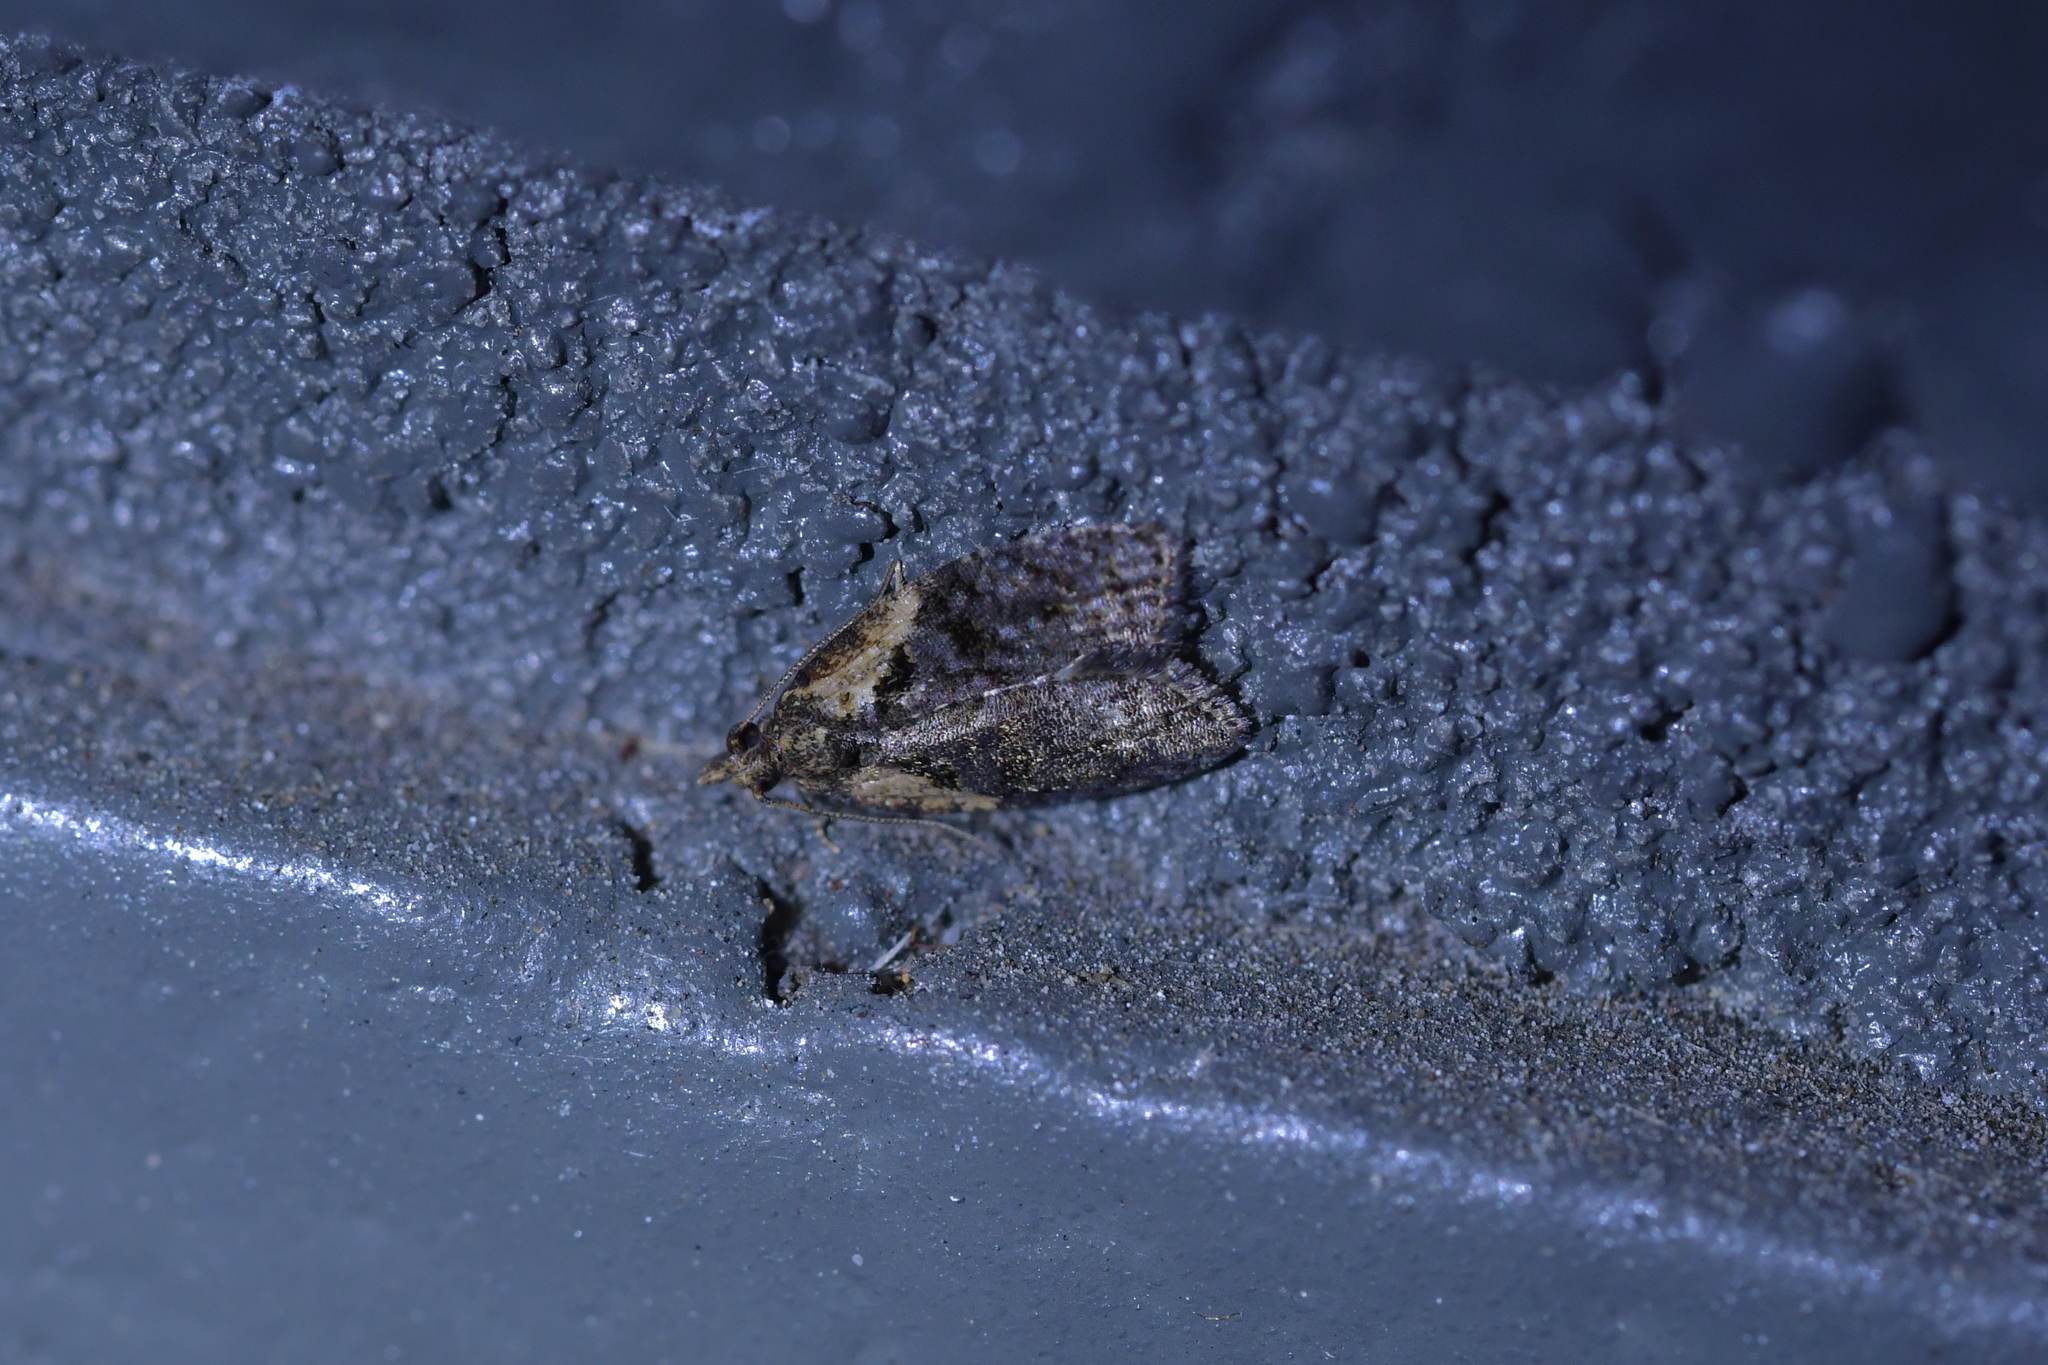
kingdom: Animalia
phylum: Arthropoda
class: Insecta
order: Lepidoptera
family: Tortricidae
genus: Capua
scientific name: Capua intractana
